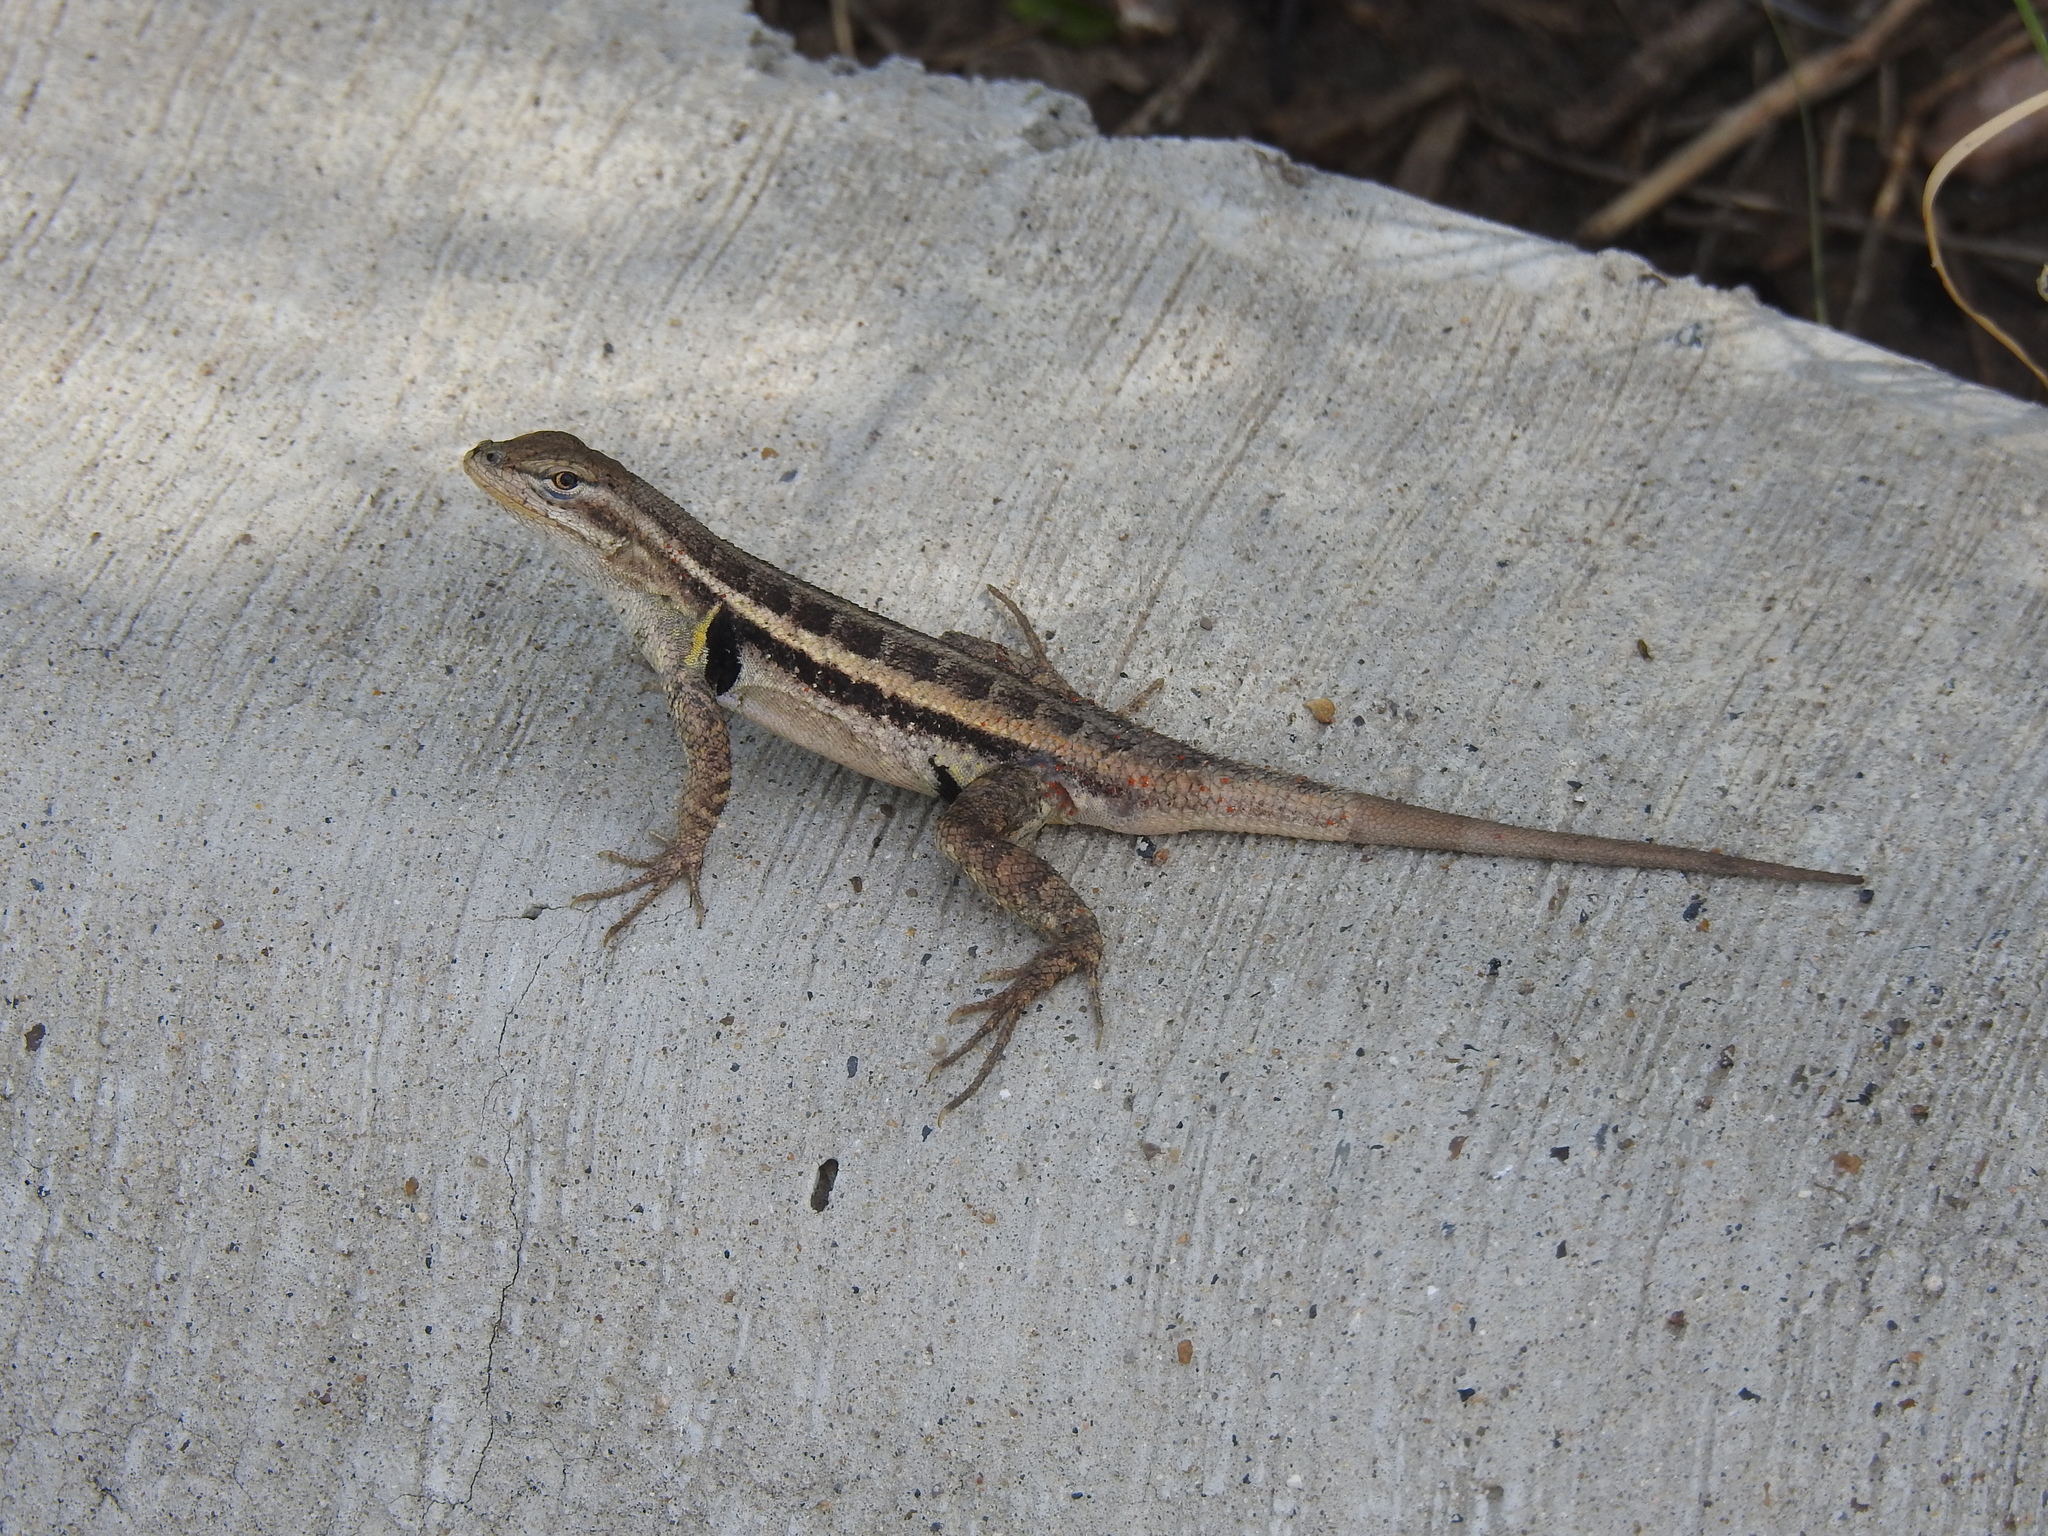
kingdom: Animalia
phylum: Chordata
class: Squamata
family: Phrynosomatidae
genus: Sceloporus
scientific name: Sceloporus variabilis
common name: Rosebelly lizard
